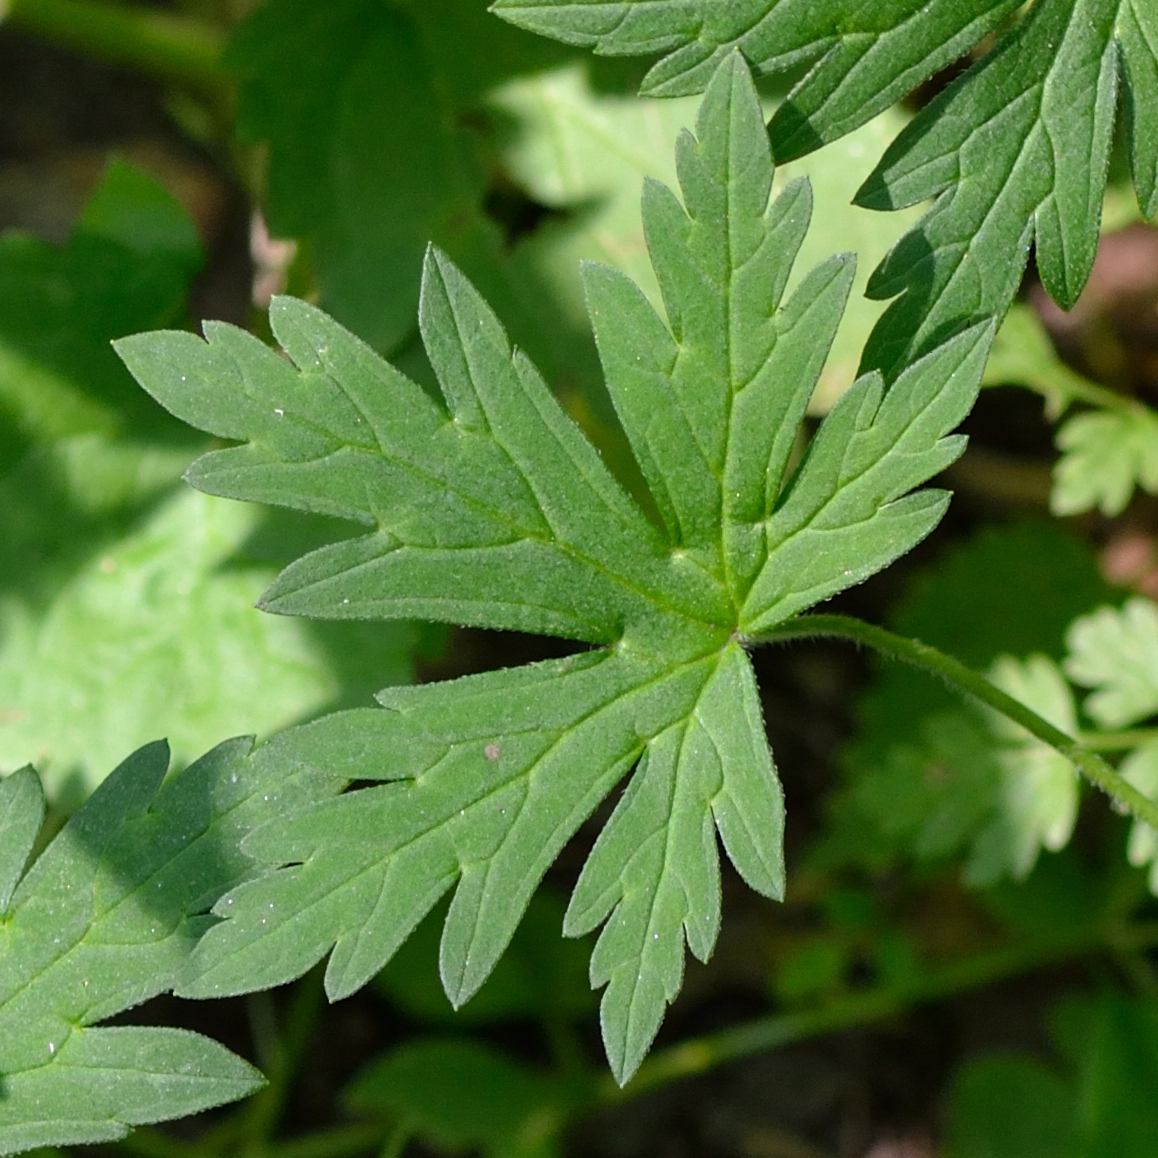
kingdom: Plantae
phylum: Tracheophyta
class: Magnoliopsida
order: Geraniales
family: Geraniaceae
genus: Geranium
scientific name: Geranium sibiricum
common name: Siberian crane's-bill
